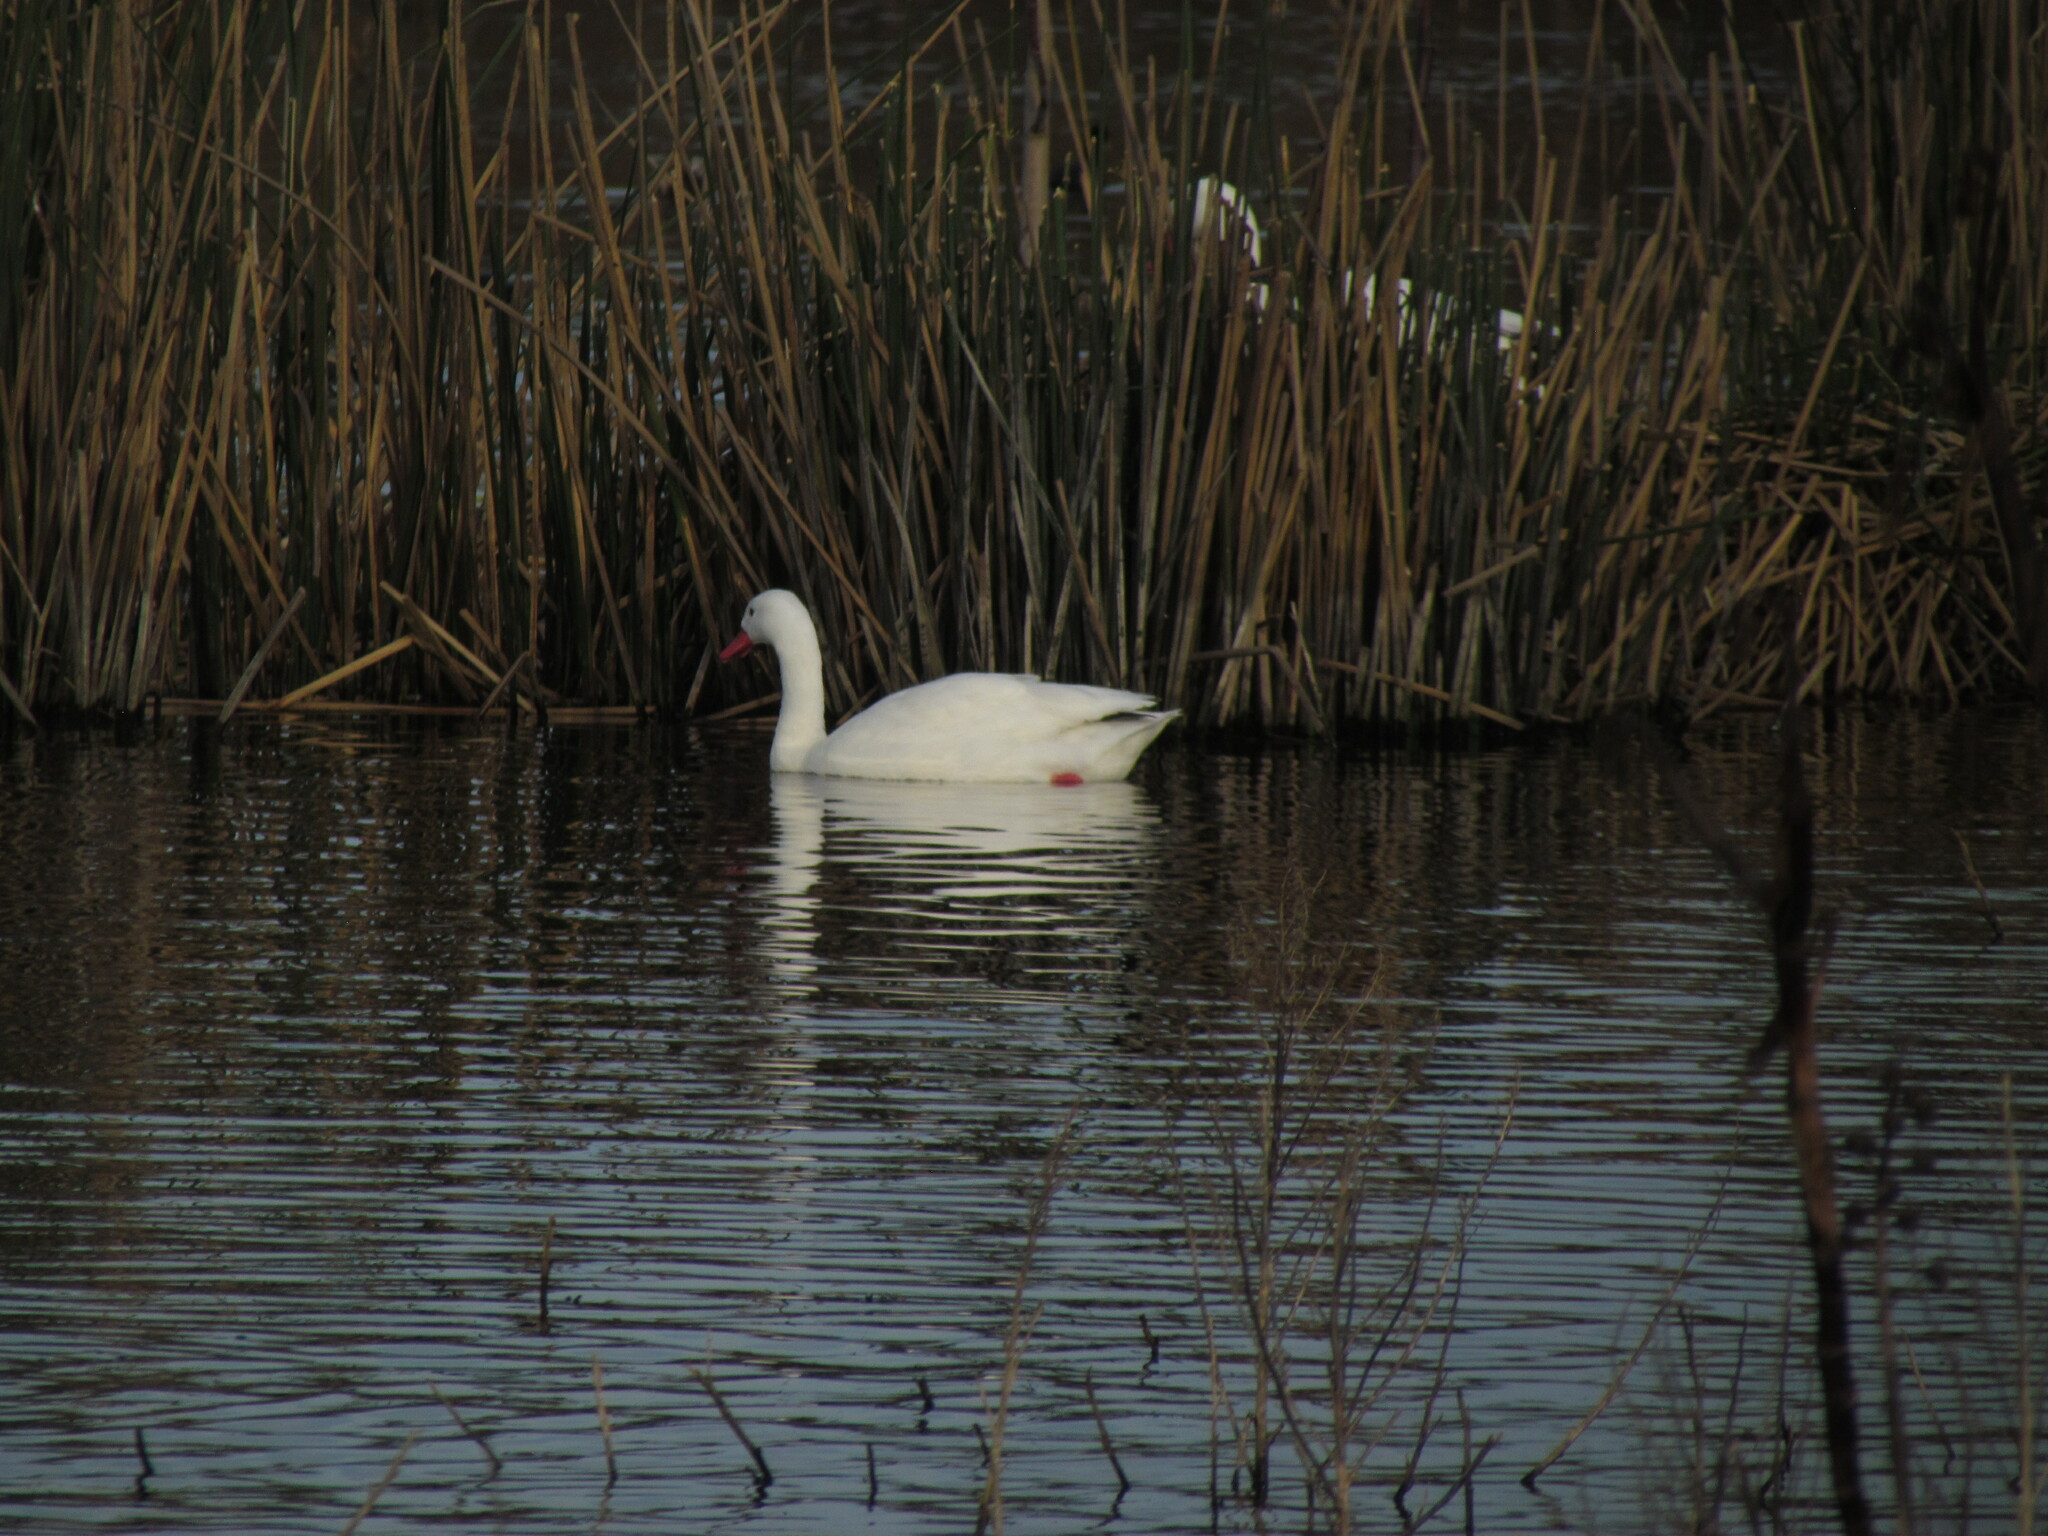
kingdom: Animalia
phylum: Chordata
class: Aves
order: Anseriformes
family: Anatidae
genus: Coscoroba
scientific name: Coscoroba coscoroba
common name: Coscoroba swan
